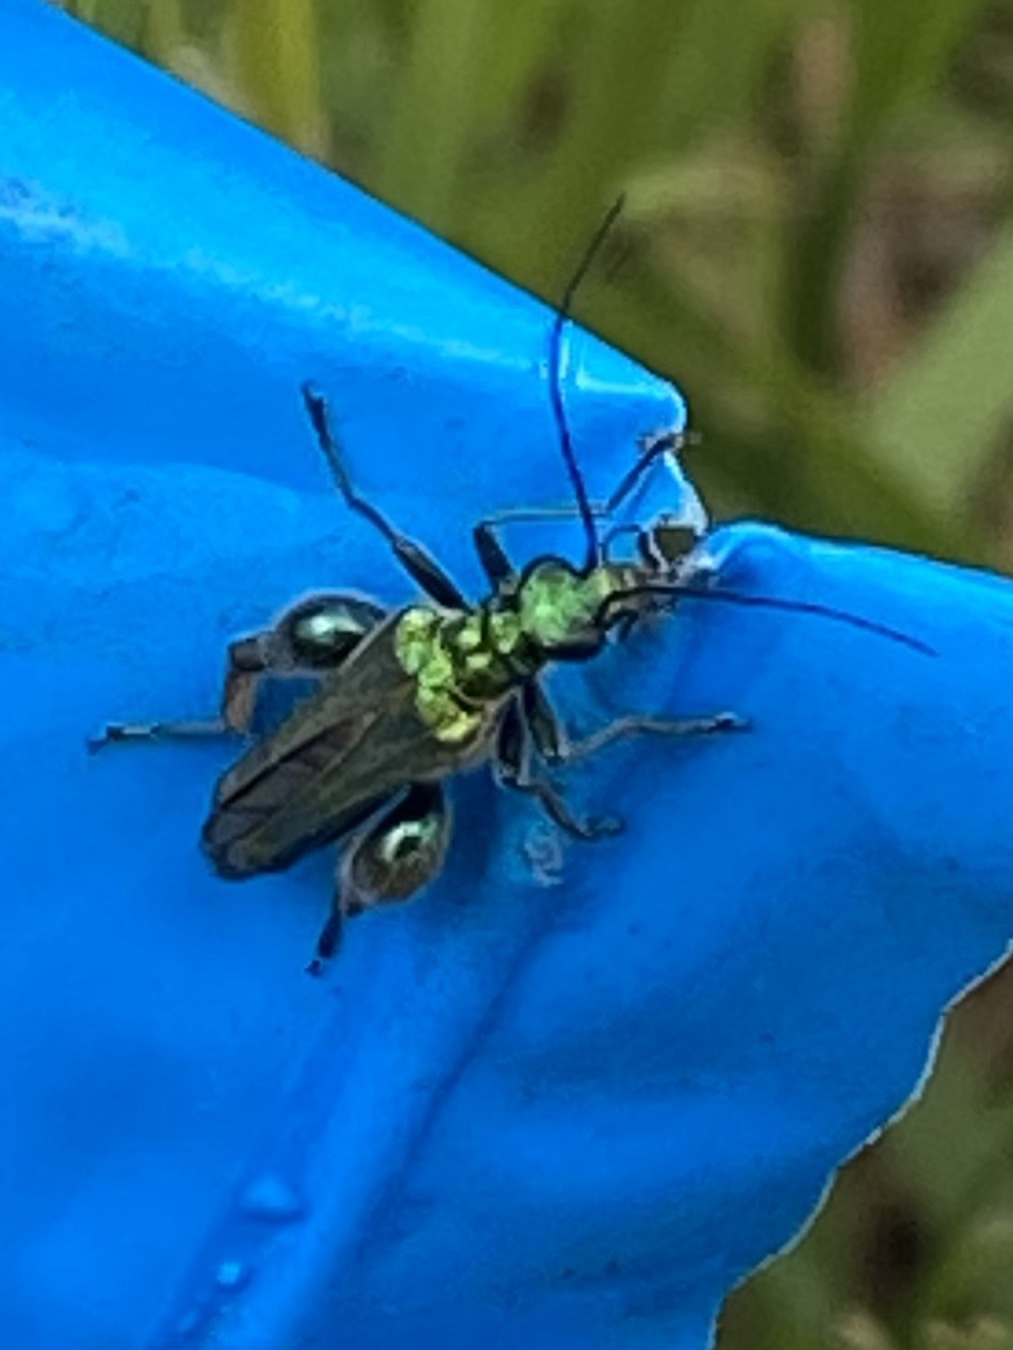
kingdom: Animalia
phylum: Arthropoda
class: Insecta
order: Coleoptera
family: Oedemeridae
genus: Oedemera
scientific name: Oedemera nobilis
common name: Swollen-thighed beetle
